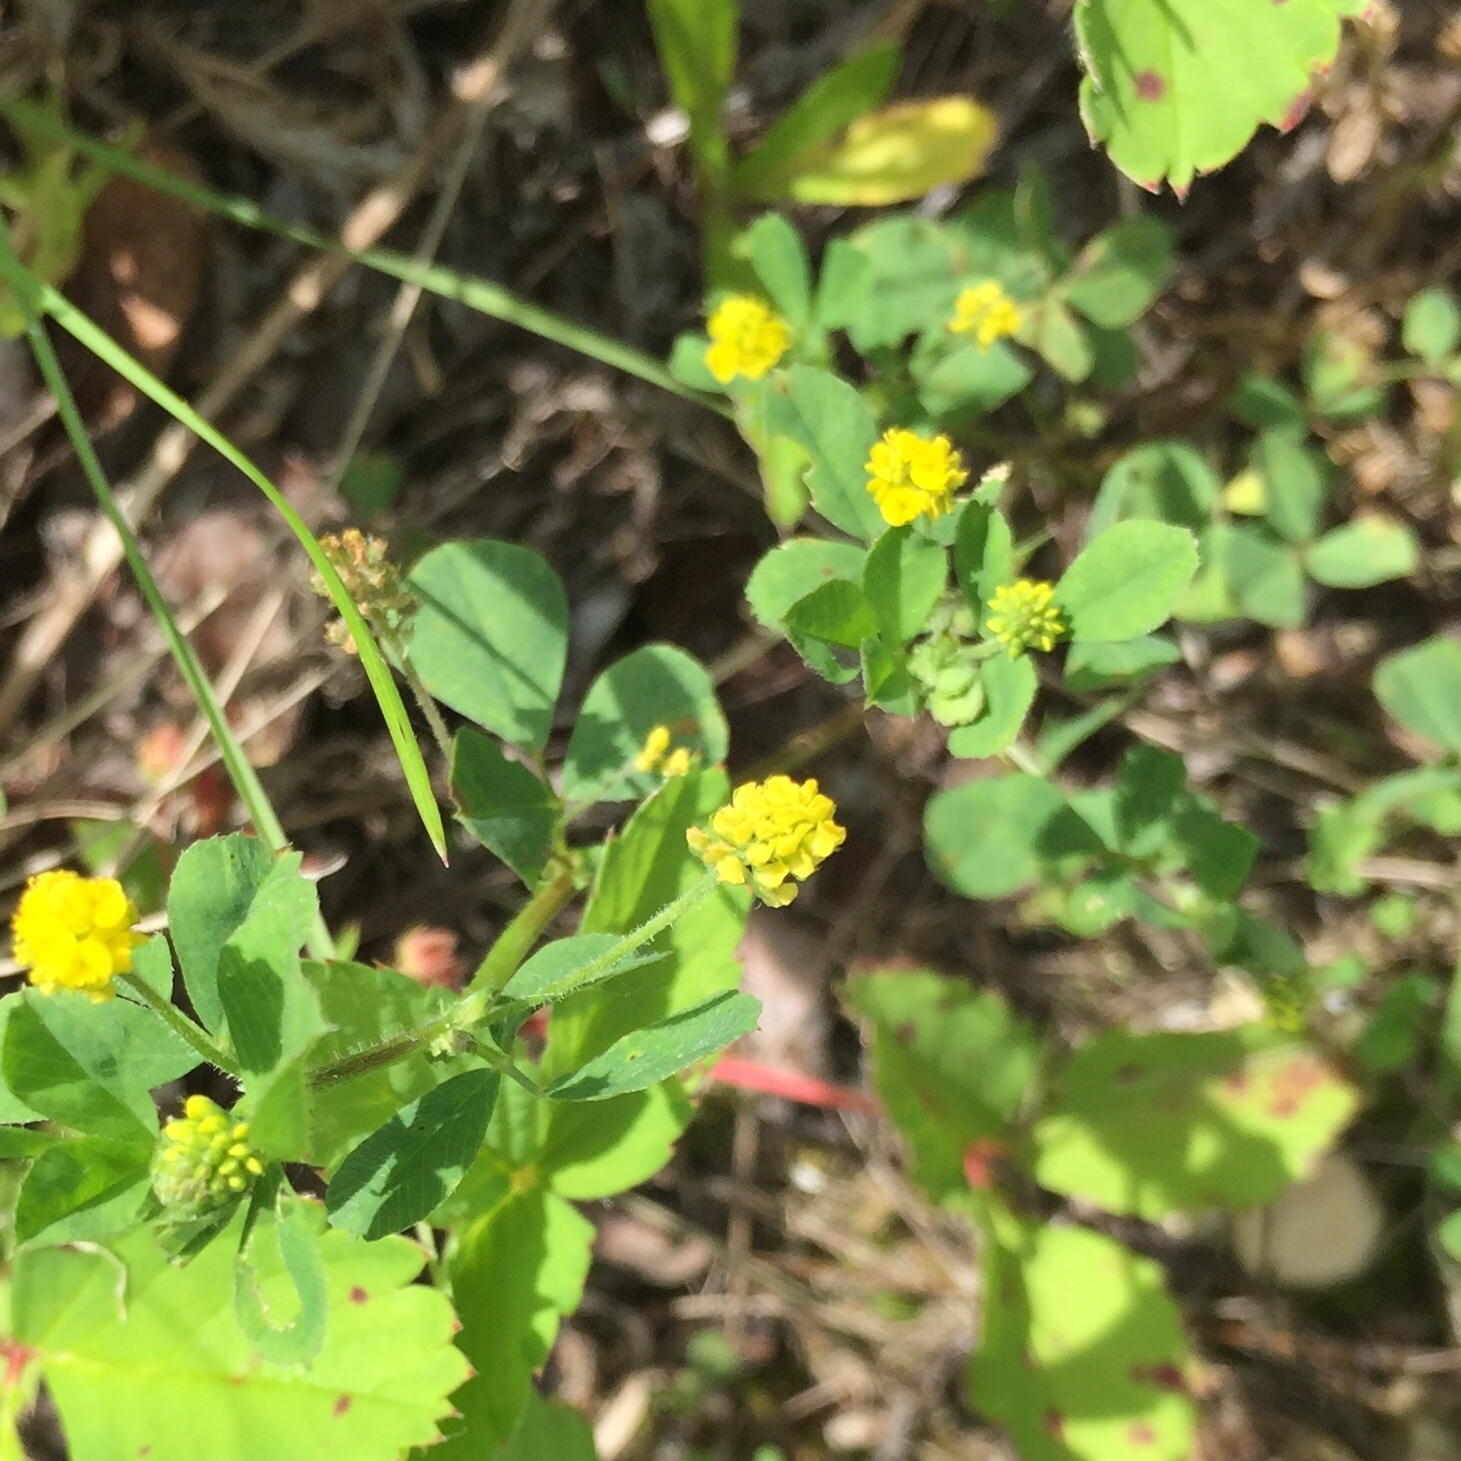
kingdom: Plantae
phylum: Tracheophyta
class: Magnoliopsida
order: Fabales
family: Fabaceae
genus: Medicago
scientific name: Medicago lupulina
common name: Black medick
